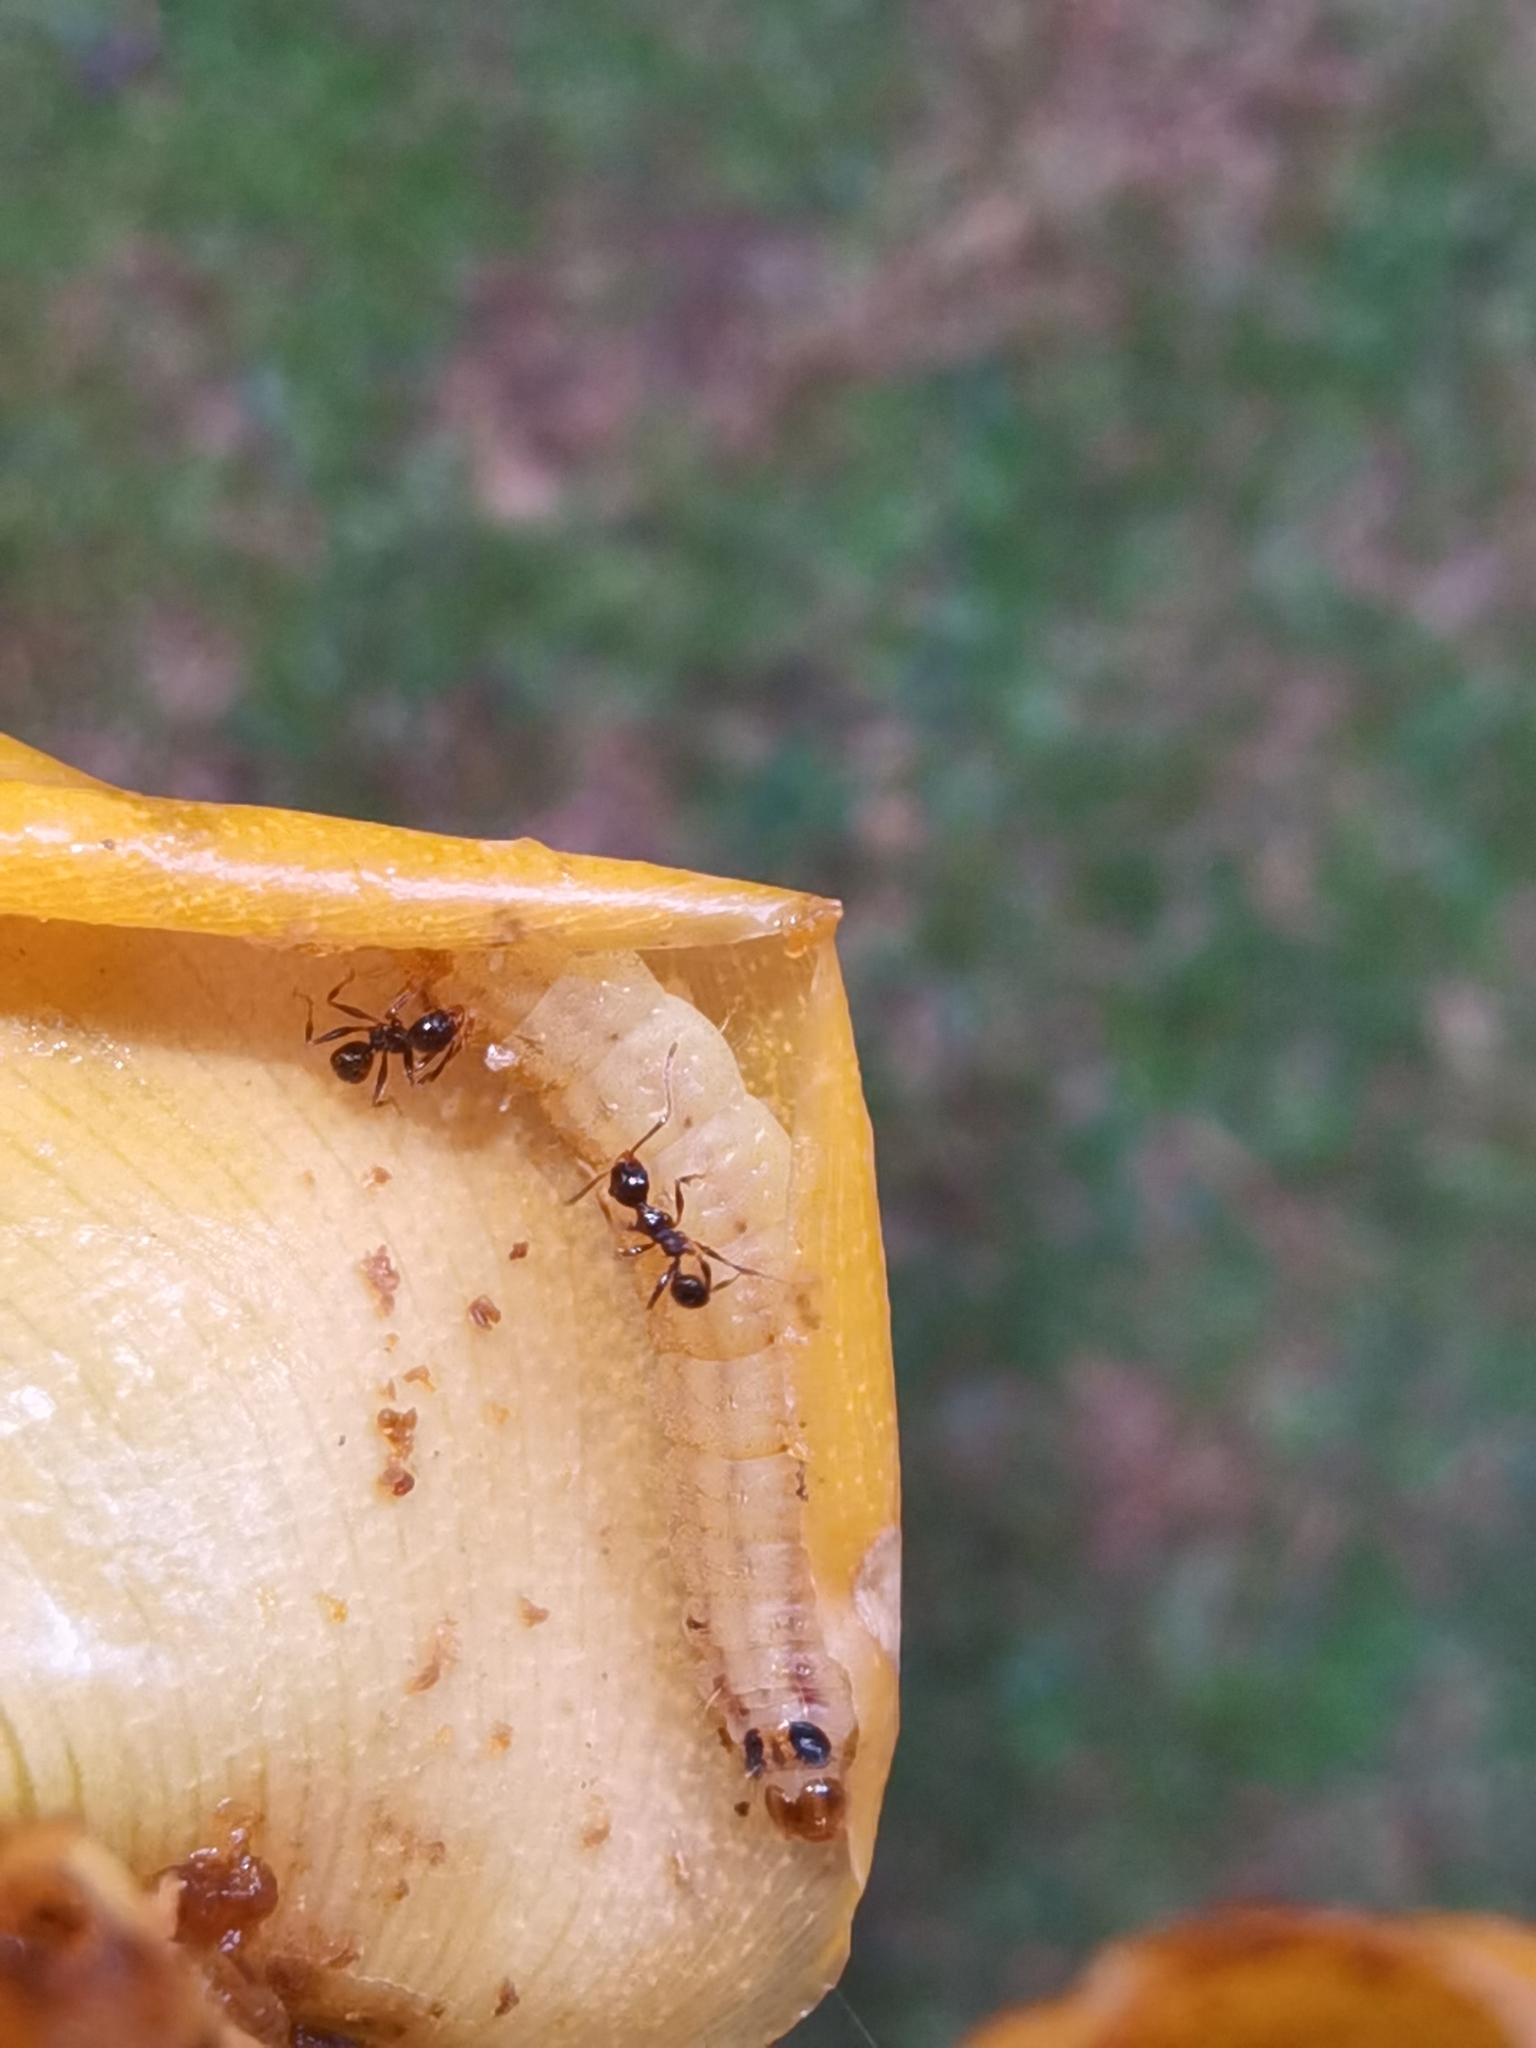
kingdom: Animalia
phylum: Cnidaria
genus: Eurybia
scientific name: Eurybia lycisca
